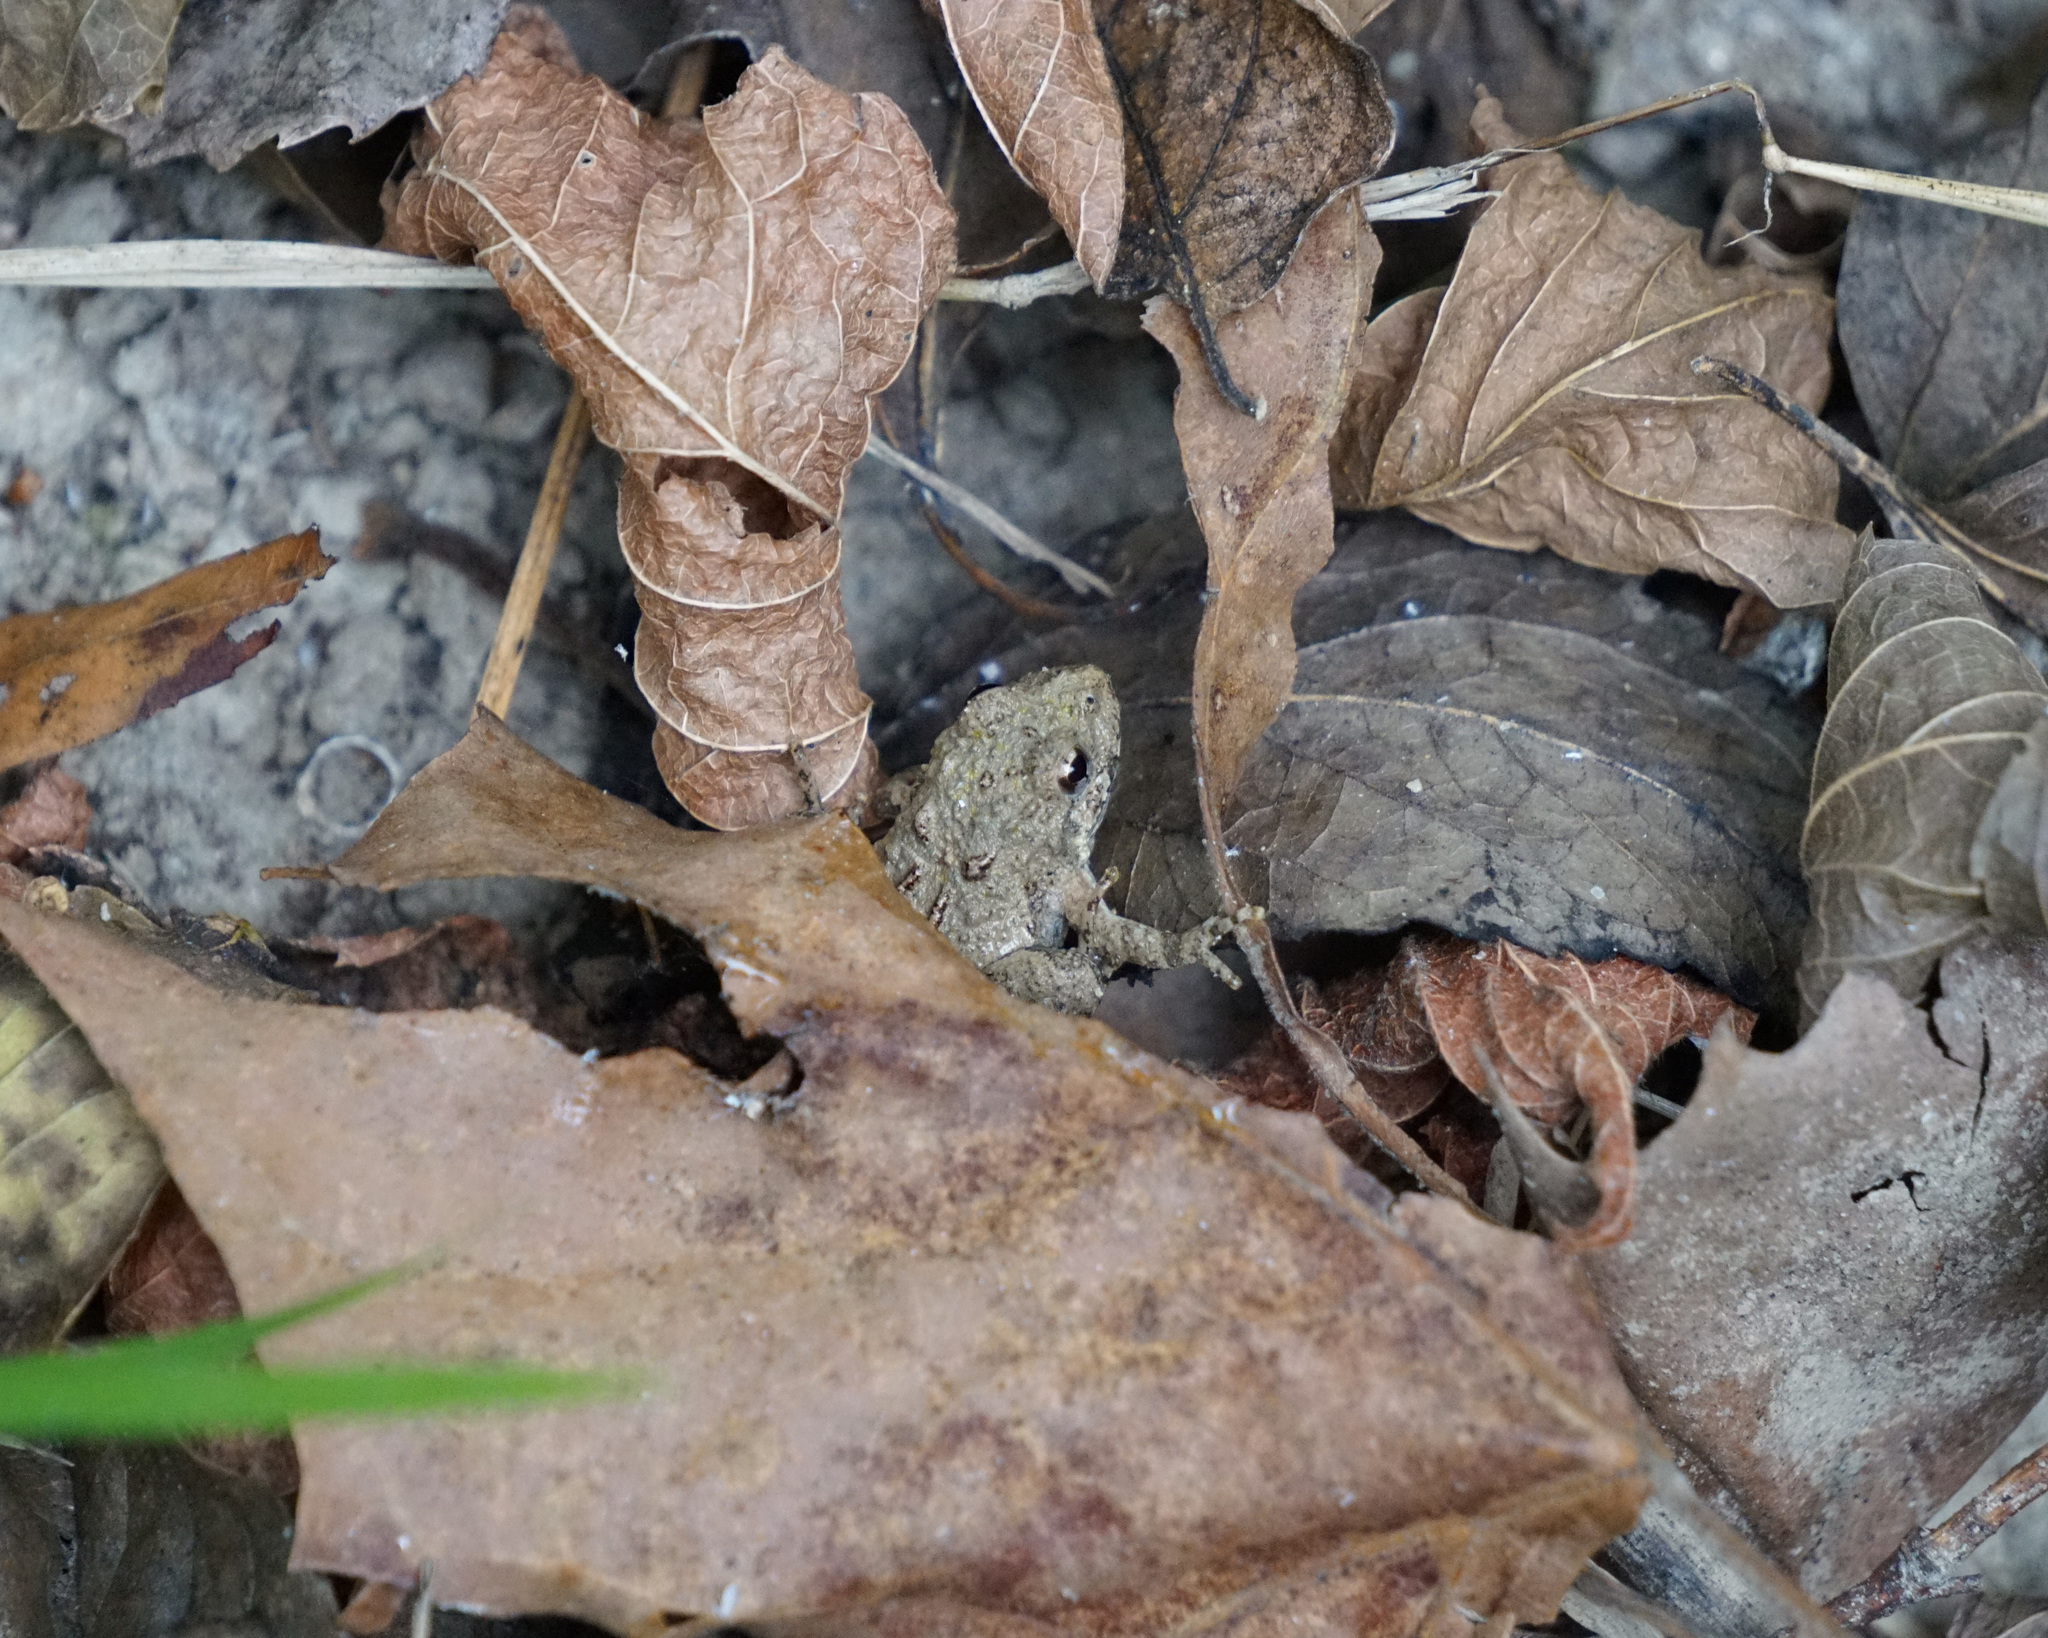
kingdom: Animalia
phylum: Chordata
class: Amphibia
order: Anura
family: Hylidae
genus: Acris
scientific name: Acris crepitans
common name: Northern cricket frog
